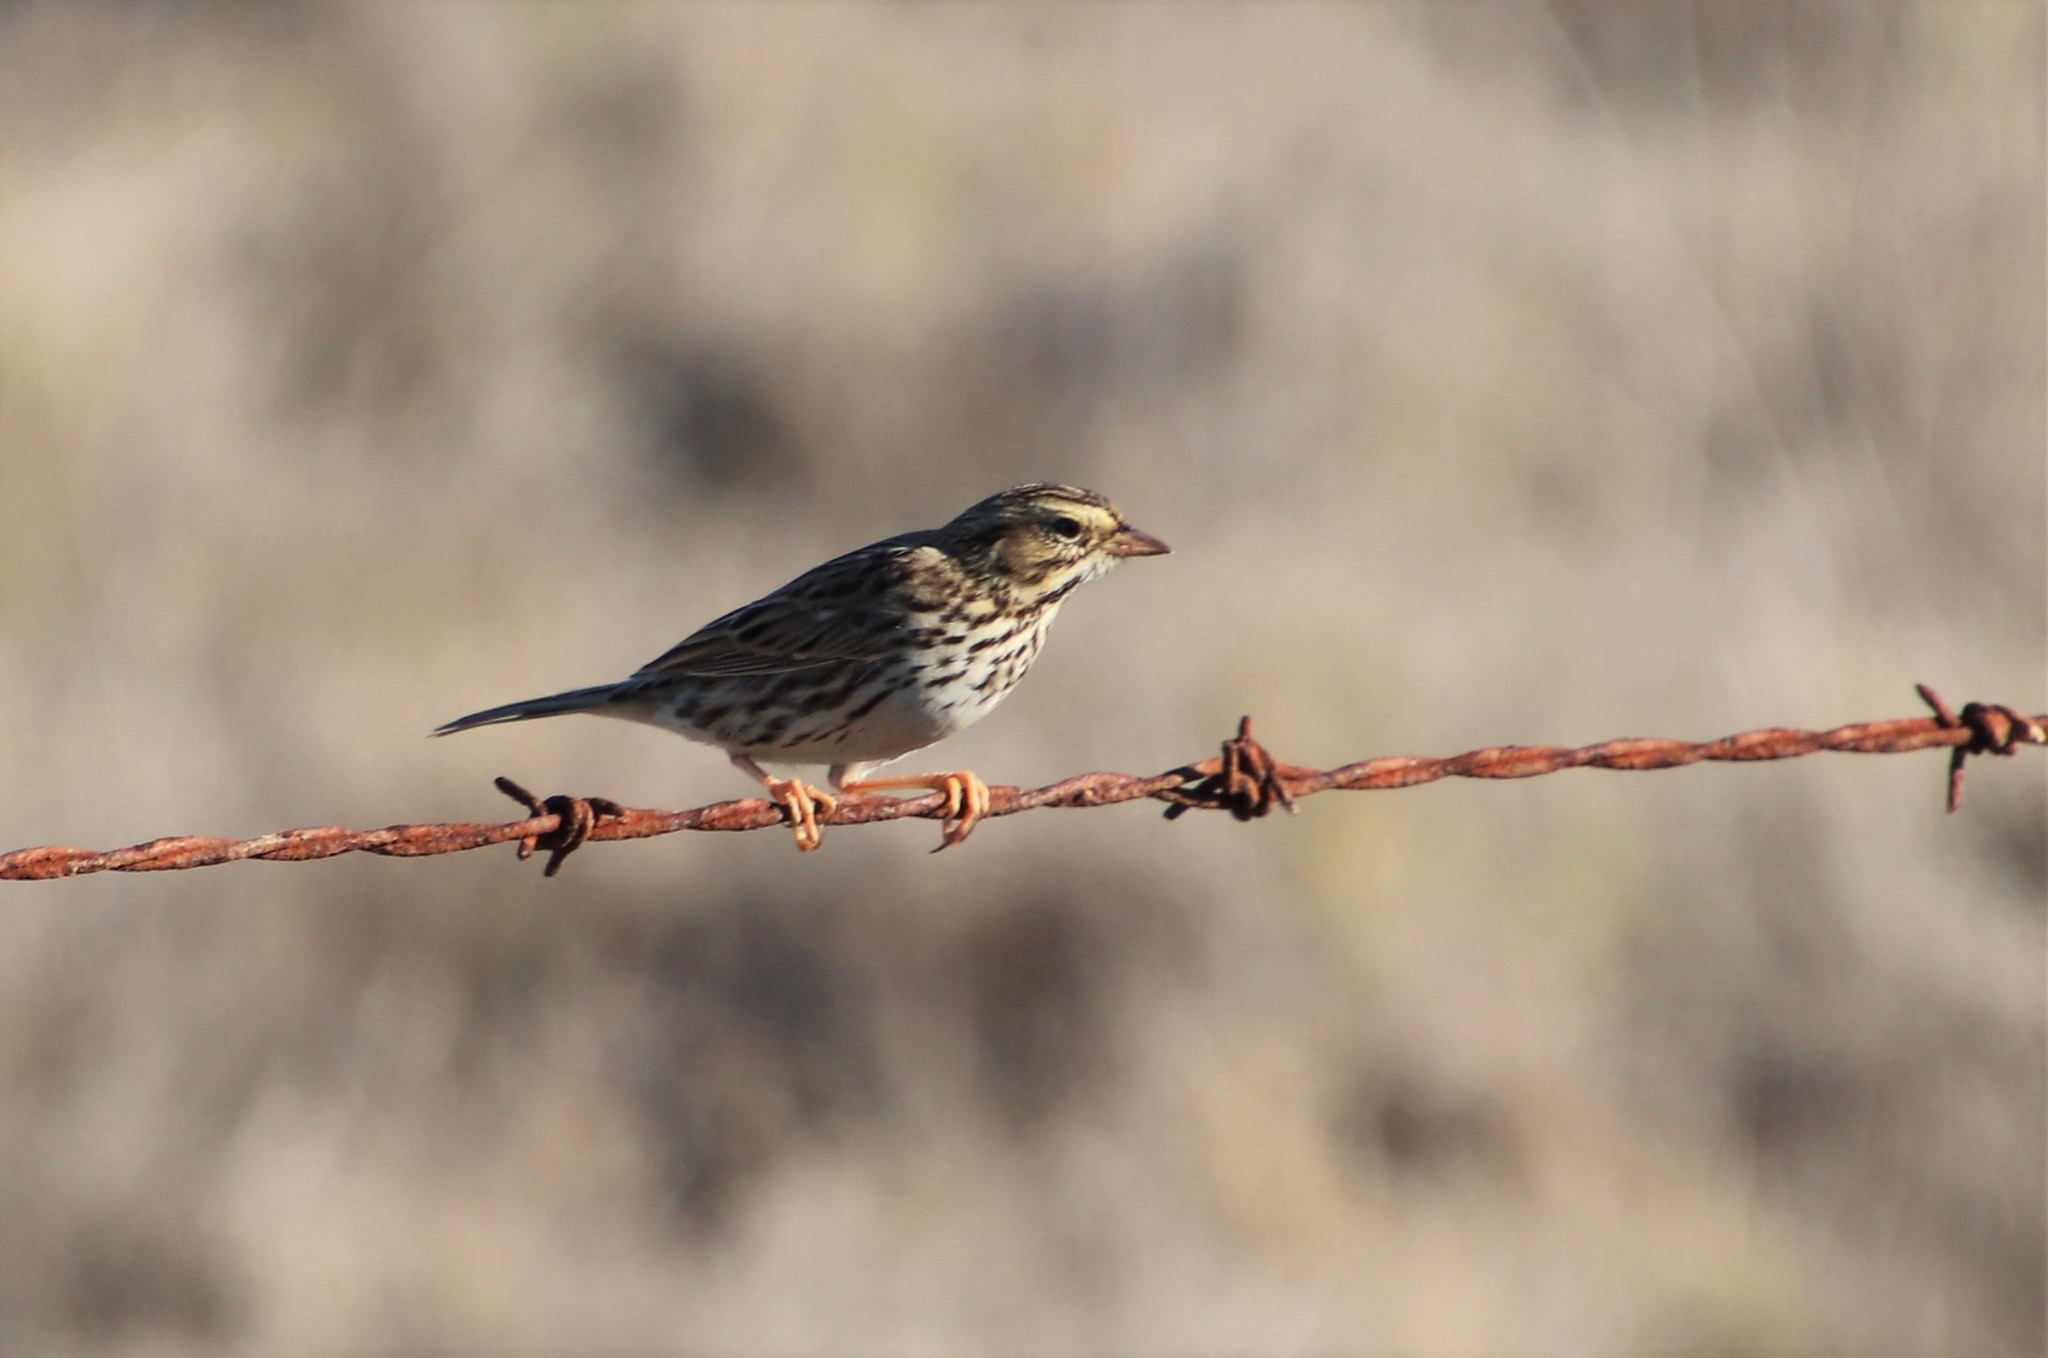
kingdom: Animalia
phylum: Chordata
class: Aves
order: Passeriformes
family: Passerellidae
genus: Passerculus
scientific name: Passerculus sandwichensis
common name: Savannah sparrow
